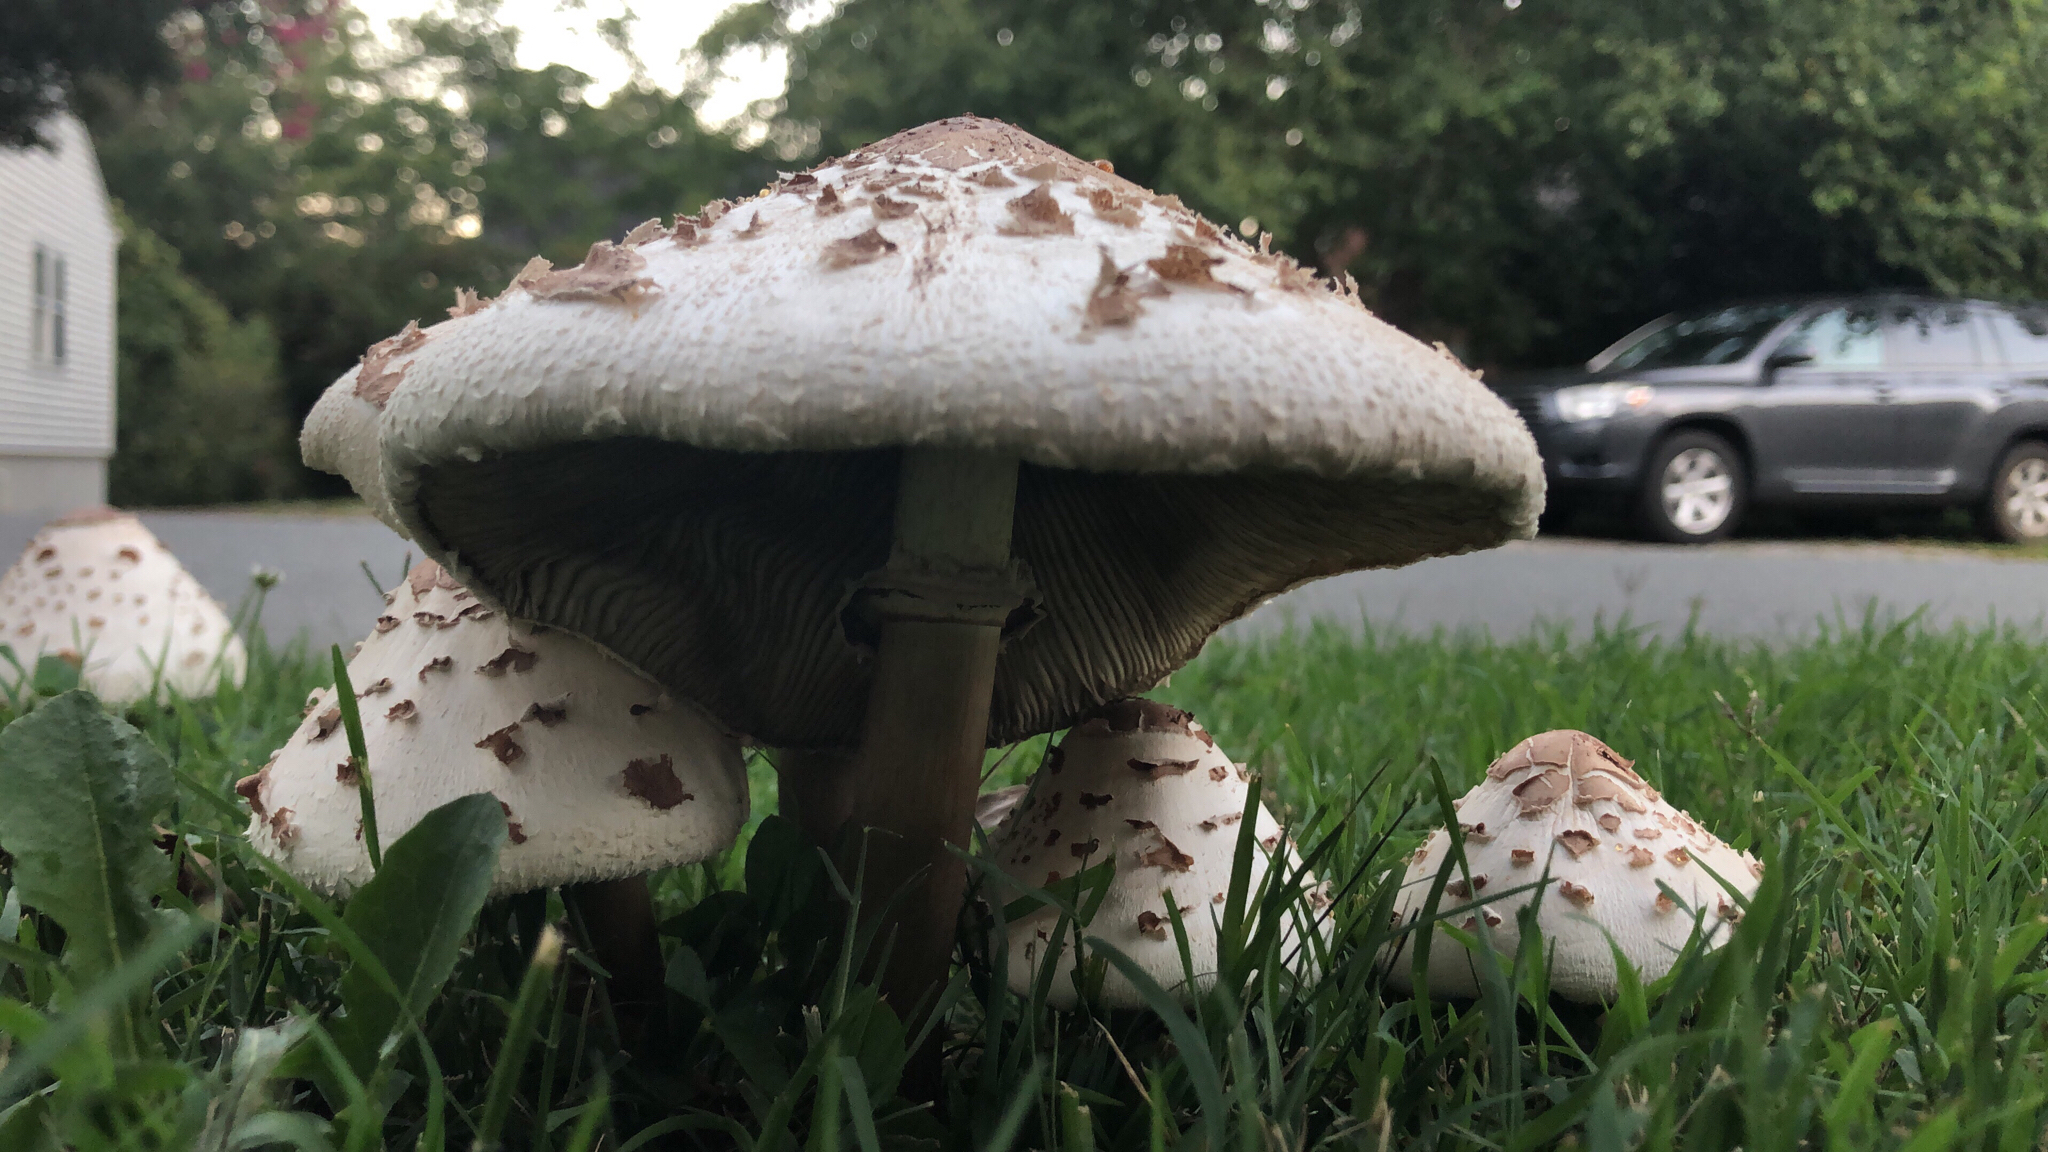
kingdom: Fungi
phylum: Basidiomycota
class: Agaricomycetes
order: Agaricales
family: Agaricaceae
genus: Chlorophyllum
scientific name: Chlorophyllum molybdites
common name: False parasol
